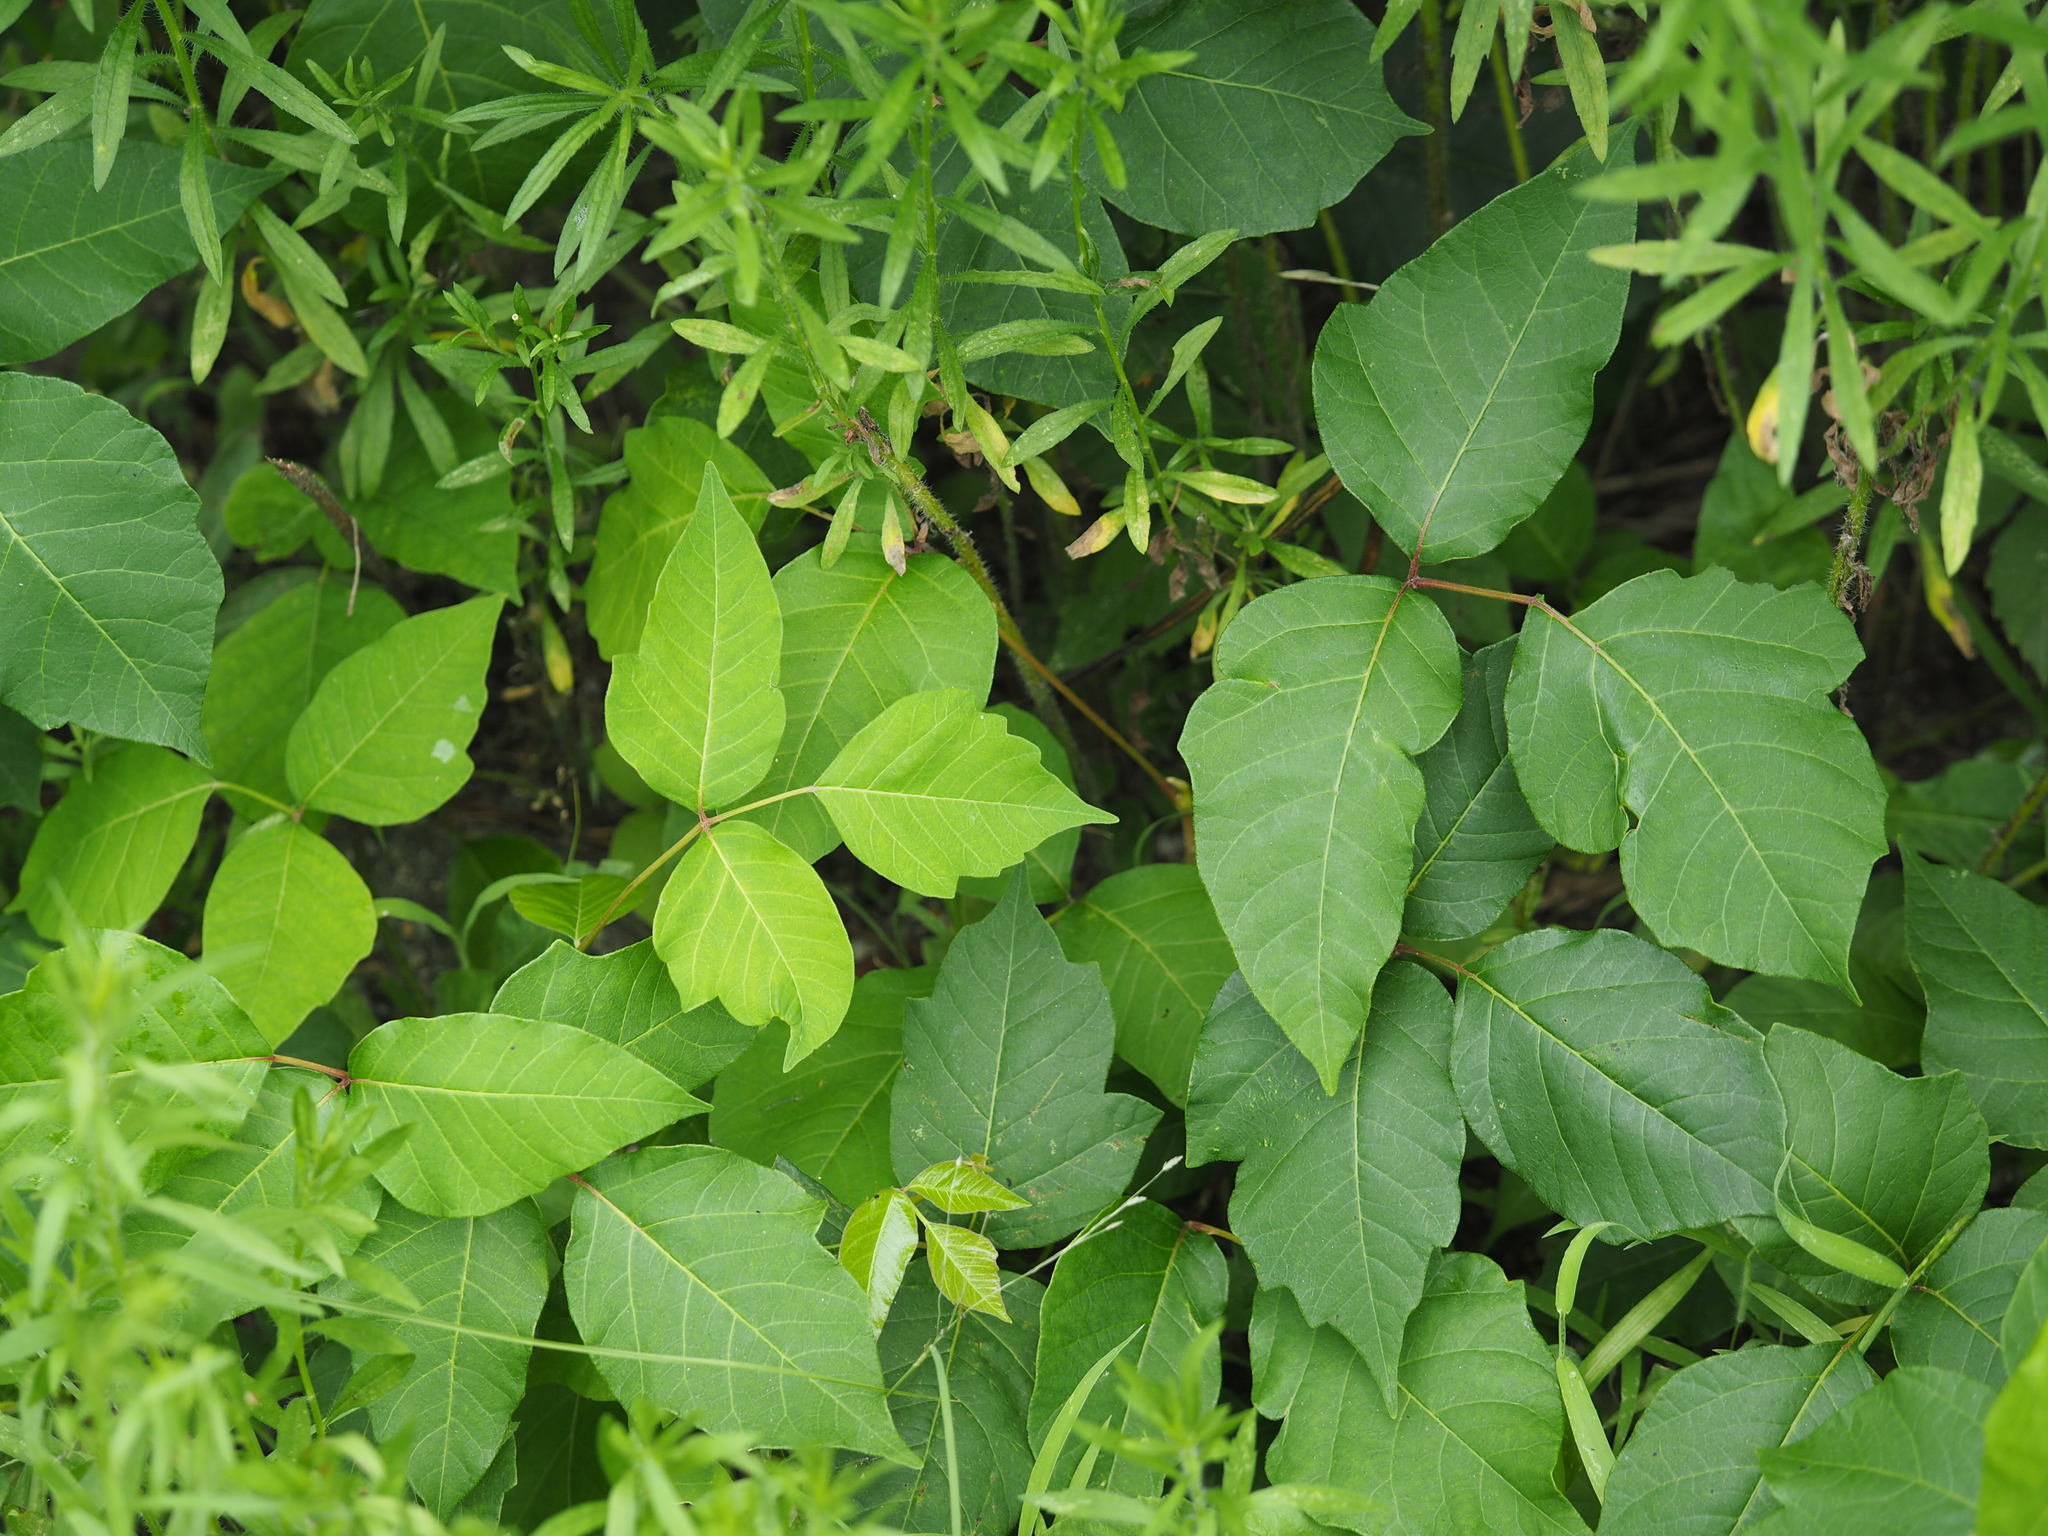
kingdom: Plantae
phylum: Tracheophyta
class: Magnoliopsida
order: Sapindales
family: Anacardiaceae
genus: Toxicodendron
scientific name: Toxicodendron radicans
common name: Poison ivy
